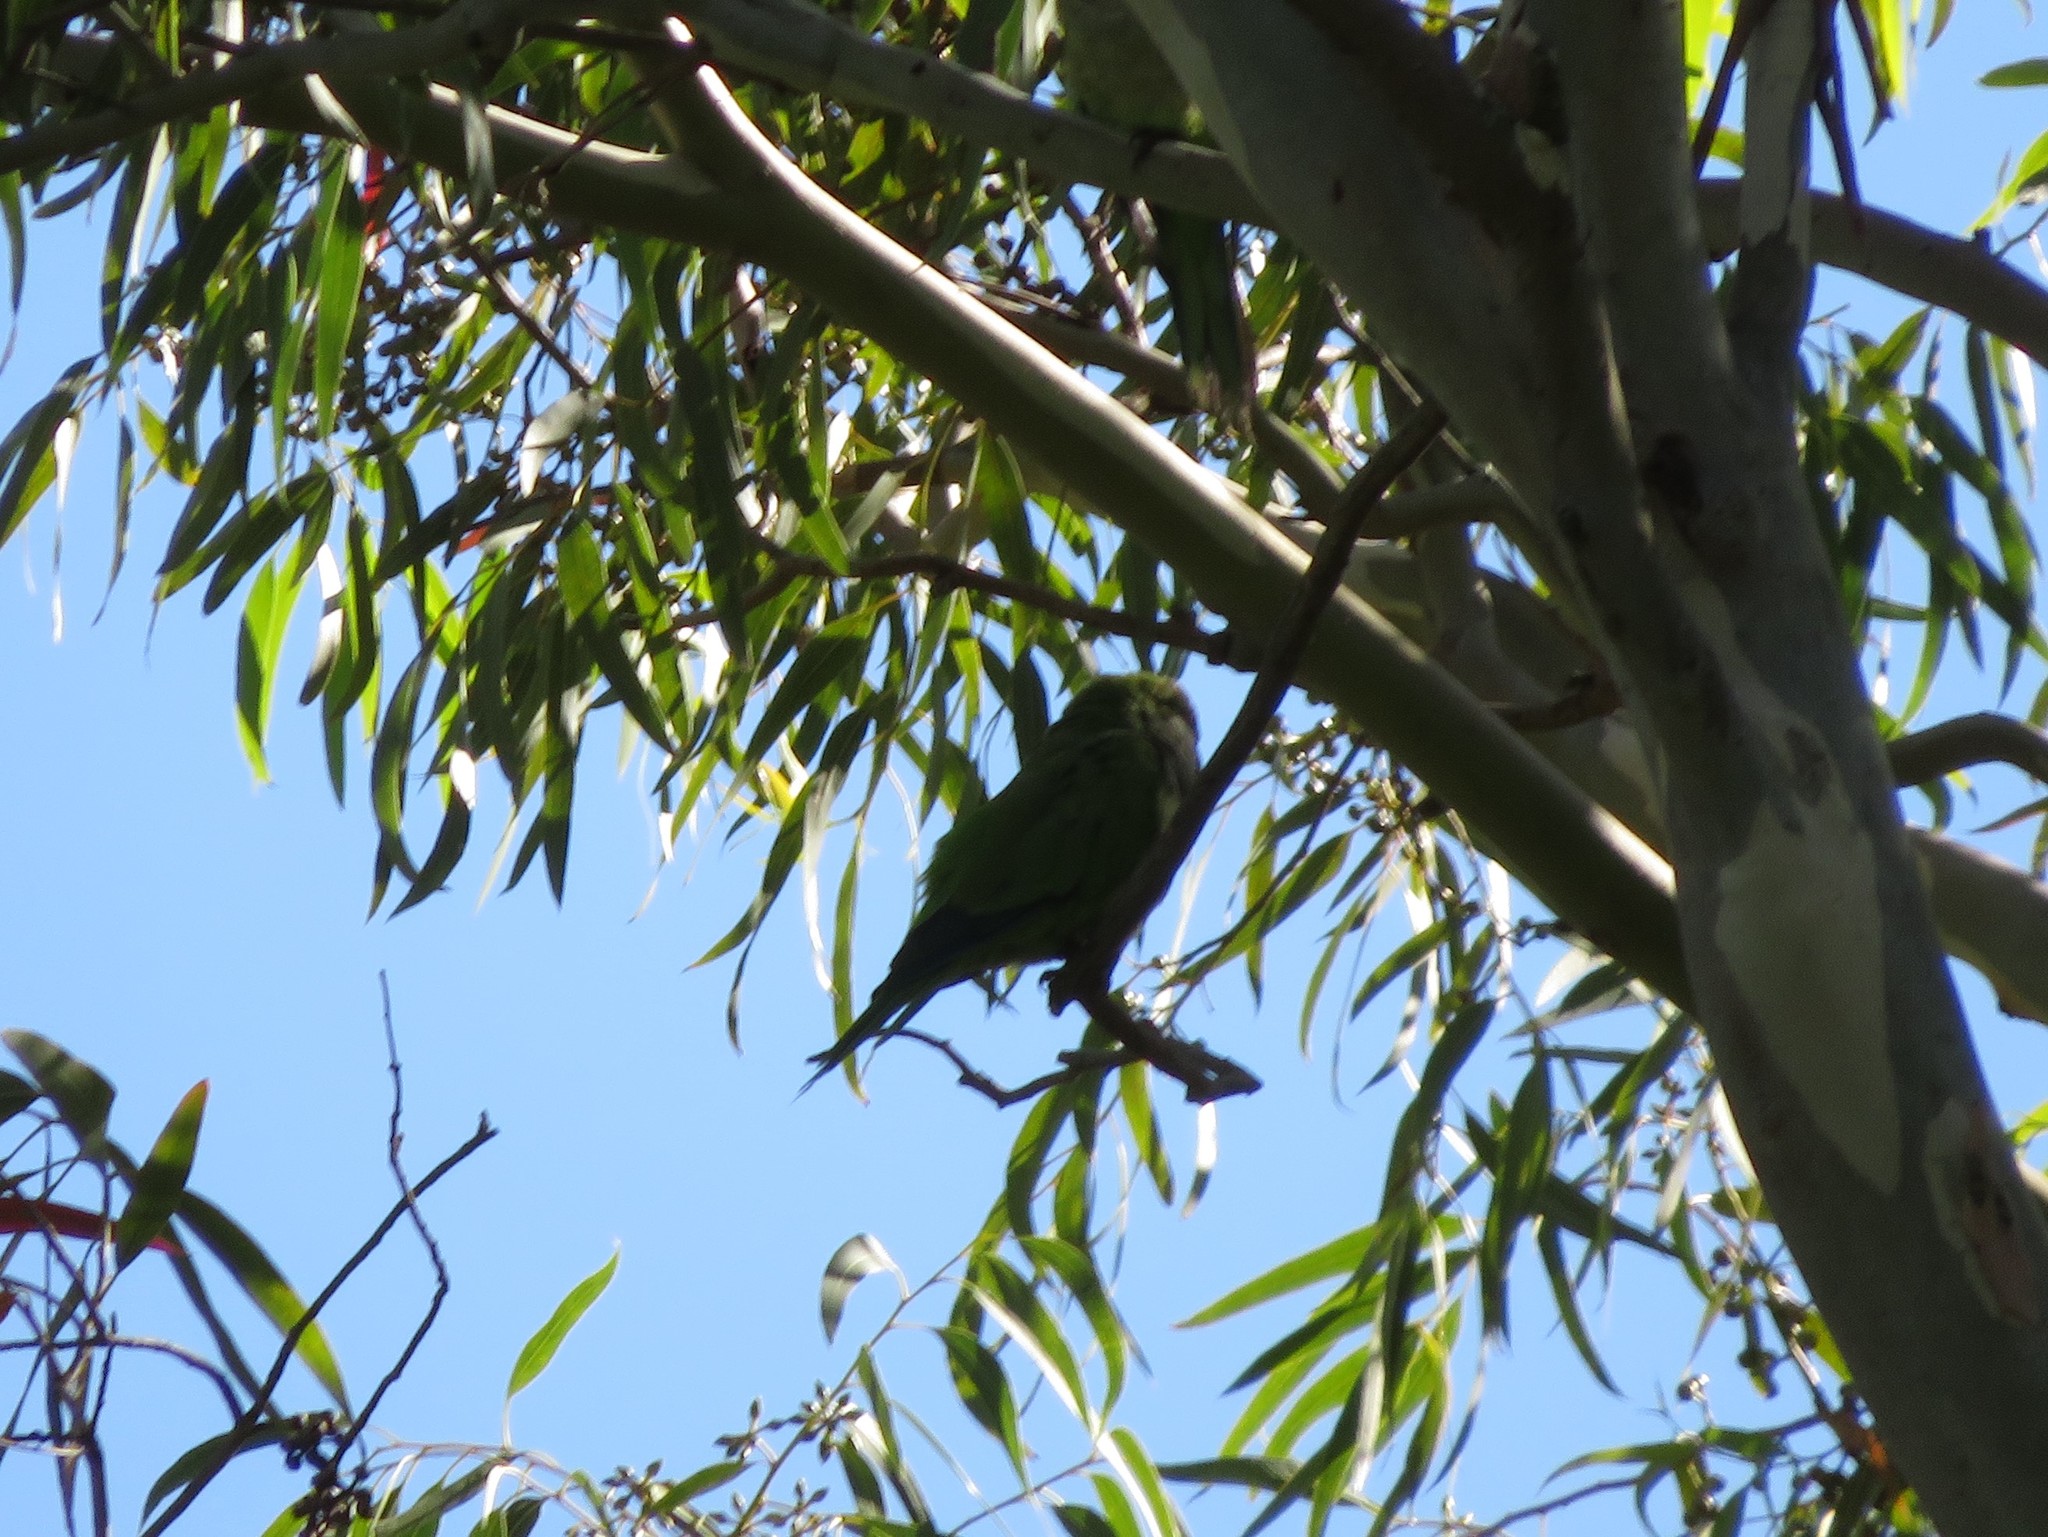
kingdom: Animalia
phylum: Chordata
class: Aves
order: Psittaciformes
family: Psittacidae
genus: Myiopsitta
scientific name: Myiopsitta monachus
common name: Monk parakeet
